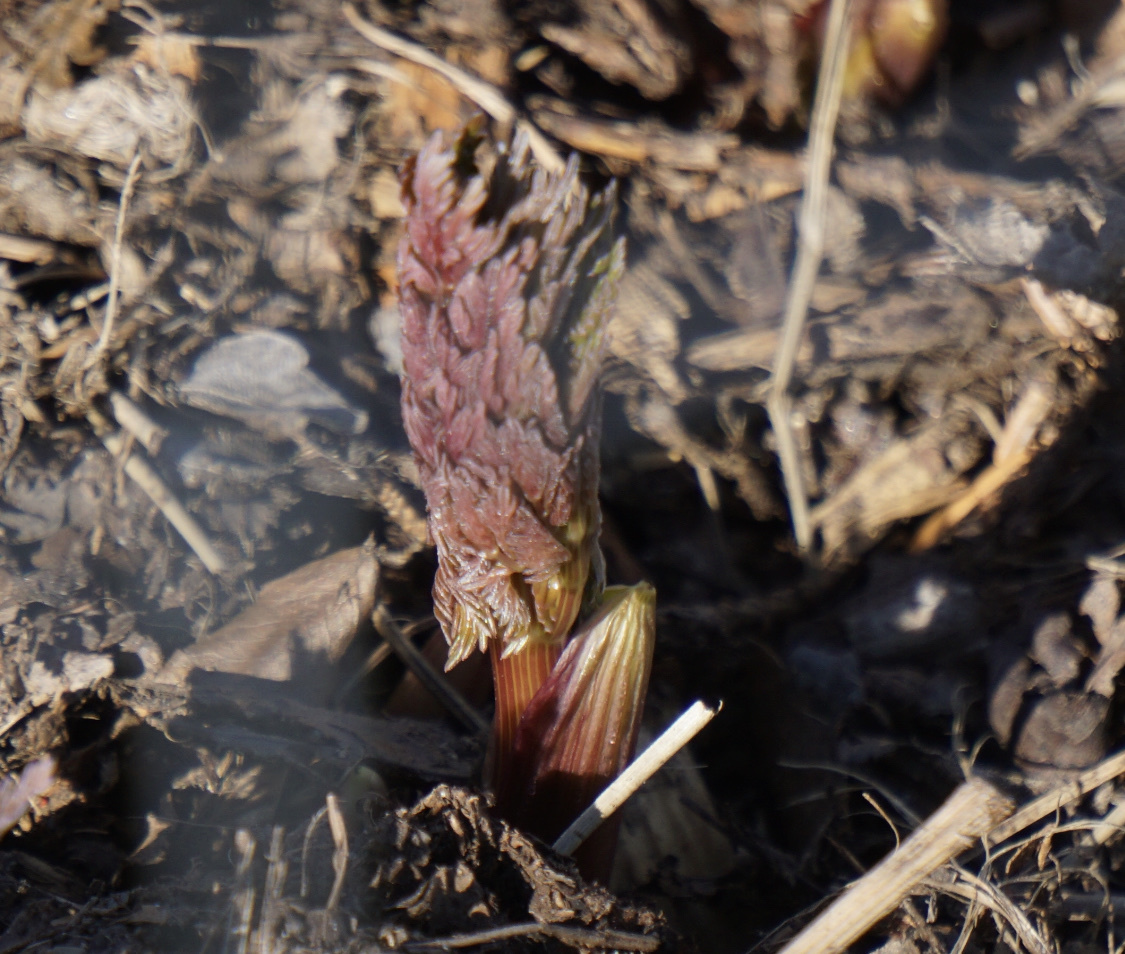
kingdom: Plantae
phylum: Tracheophyta
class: Magnoliopsida
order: Apiales
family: Apiaceae
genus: Lomatium
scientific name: Lomatium dissectum
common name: Lomatium
